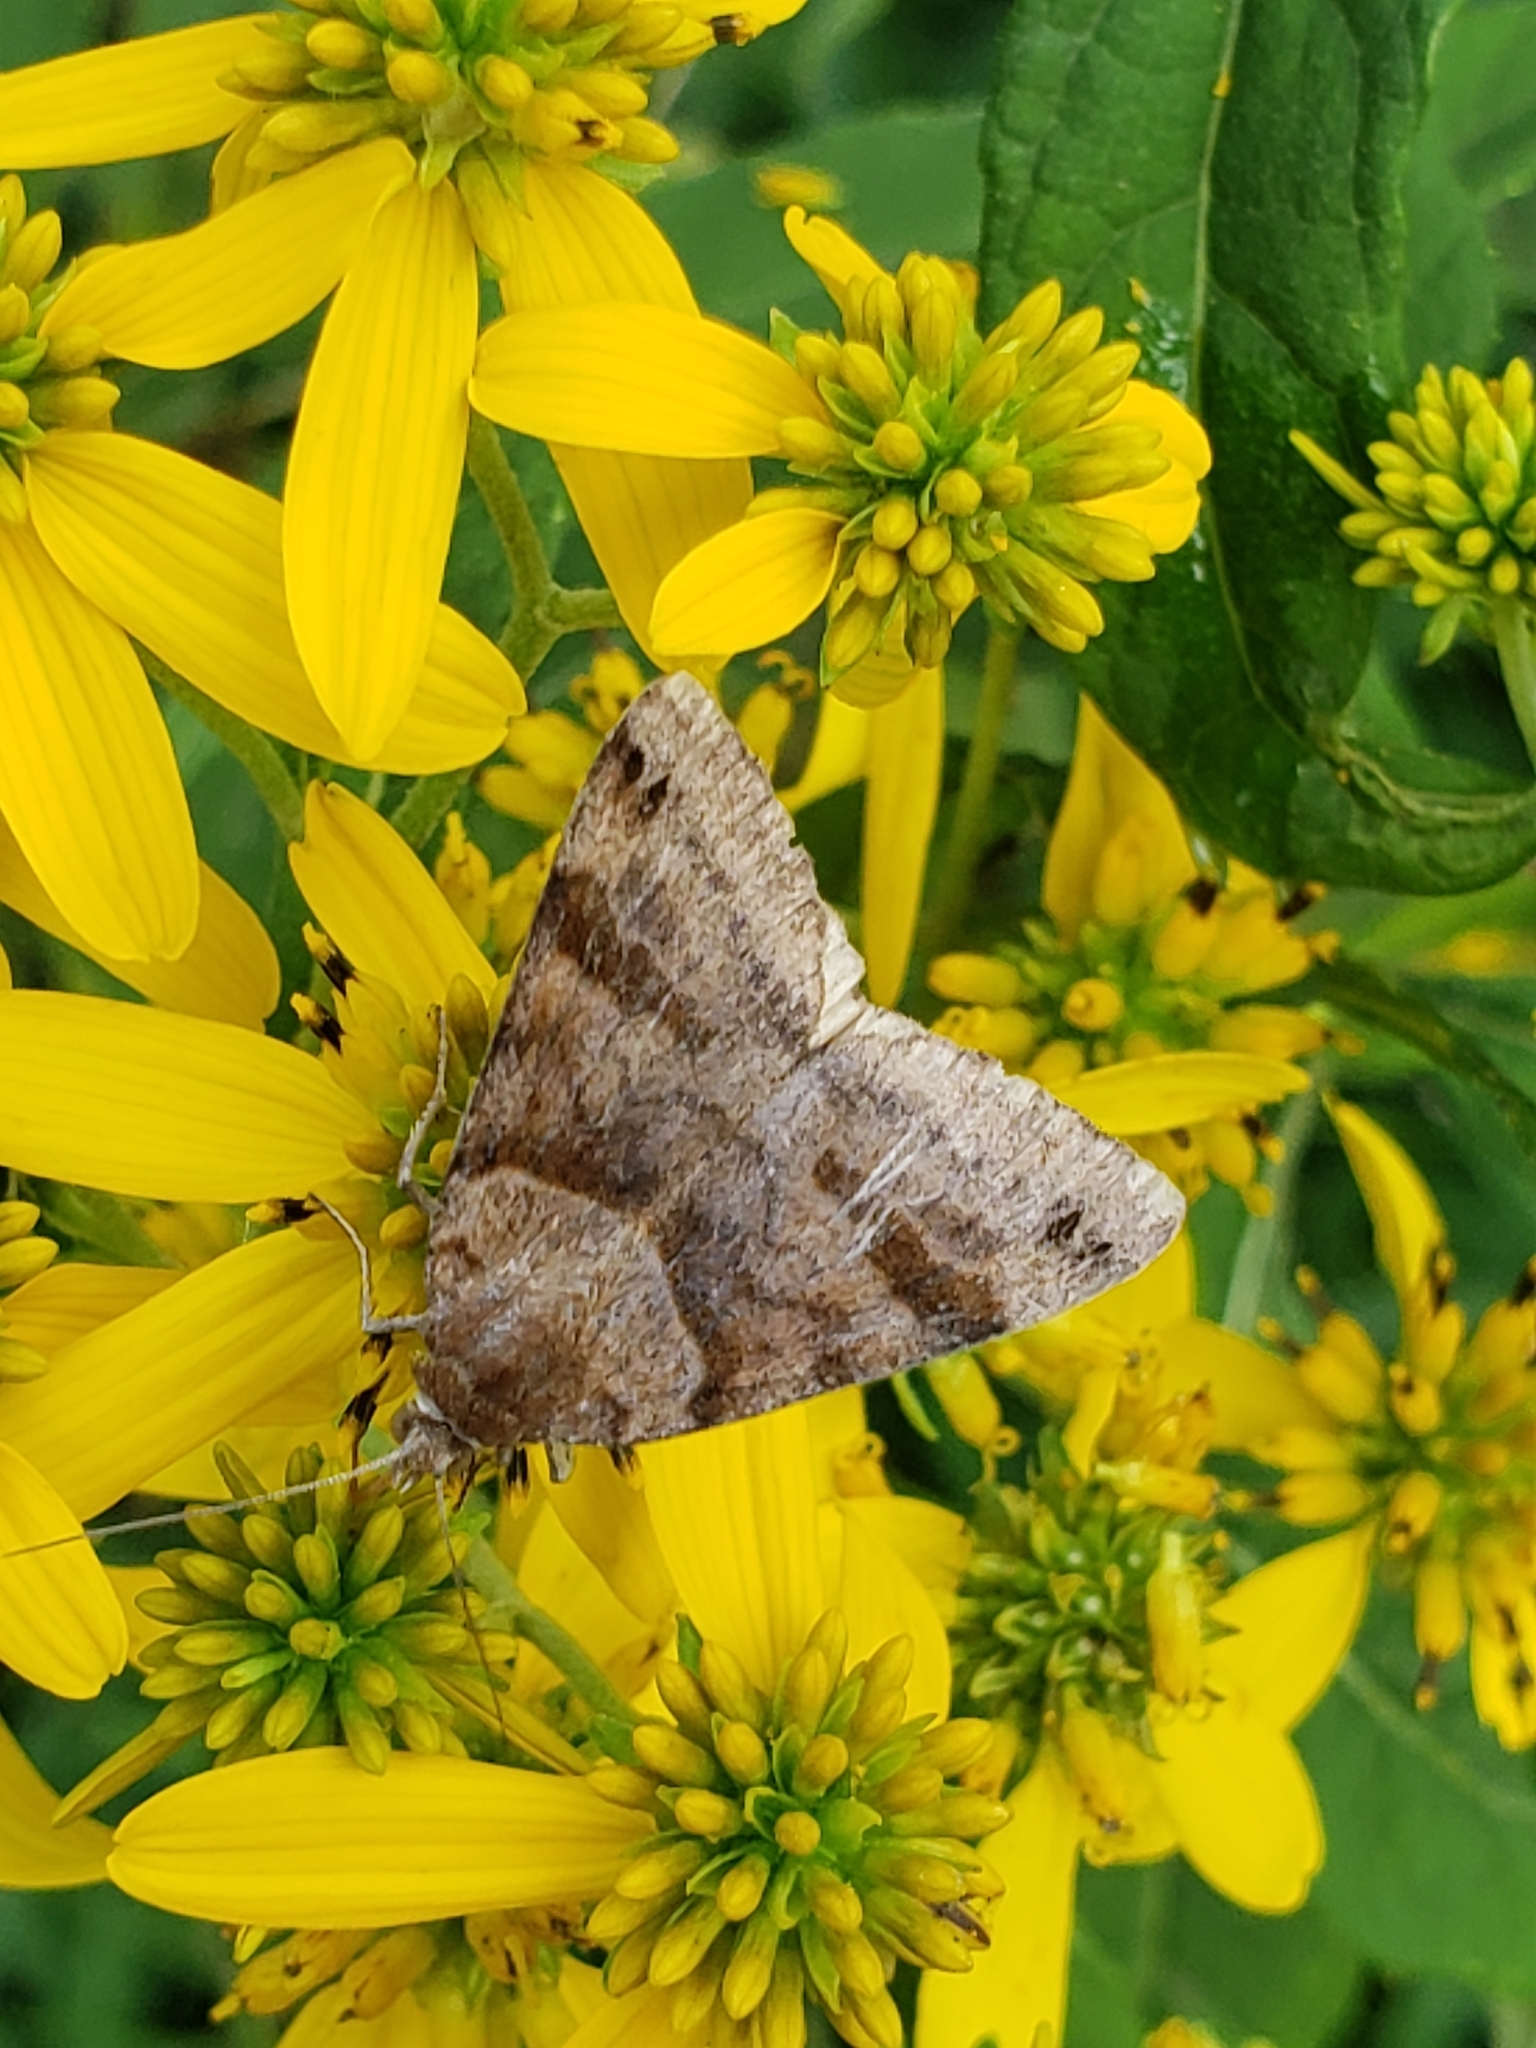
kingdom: Animalia
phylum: Arthropoda
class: Insecta
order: Lepidoptera
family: Erebidae
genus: Caenurgina
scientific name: Caenurgina crassiuscula
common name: Double-barred
